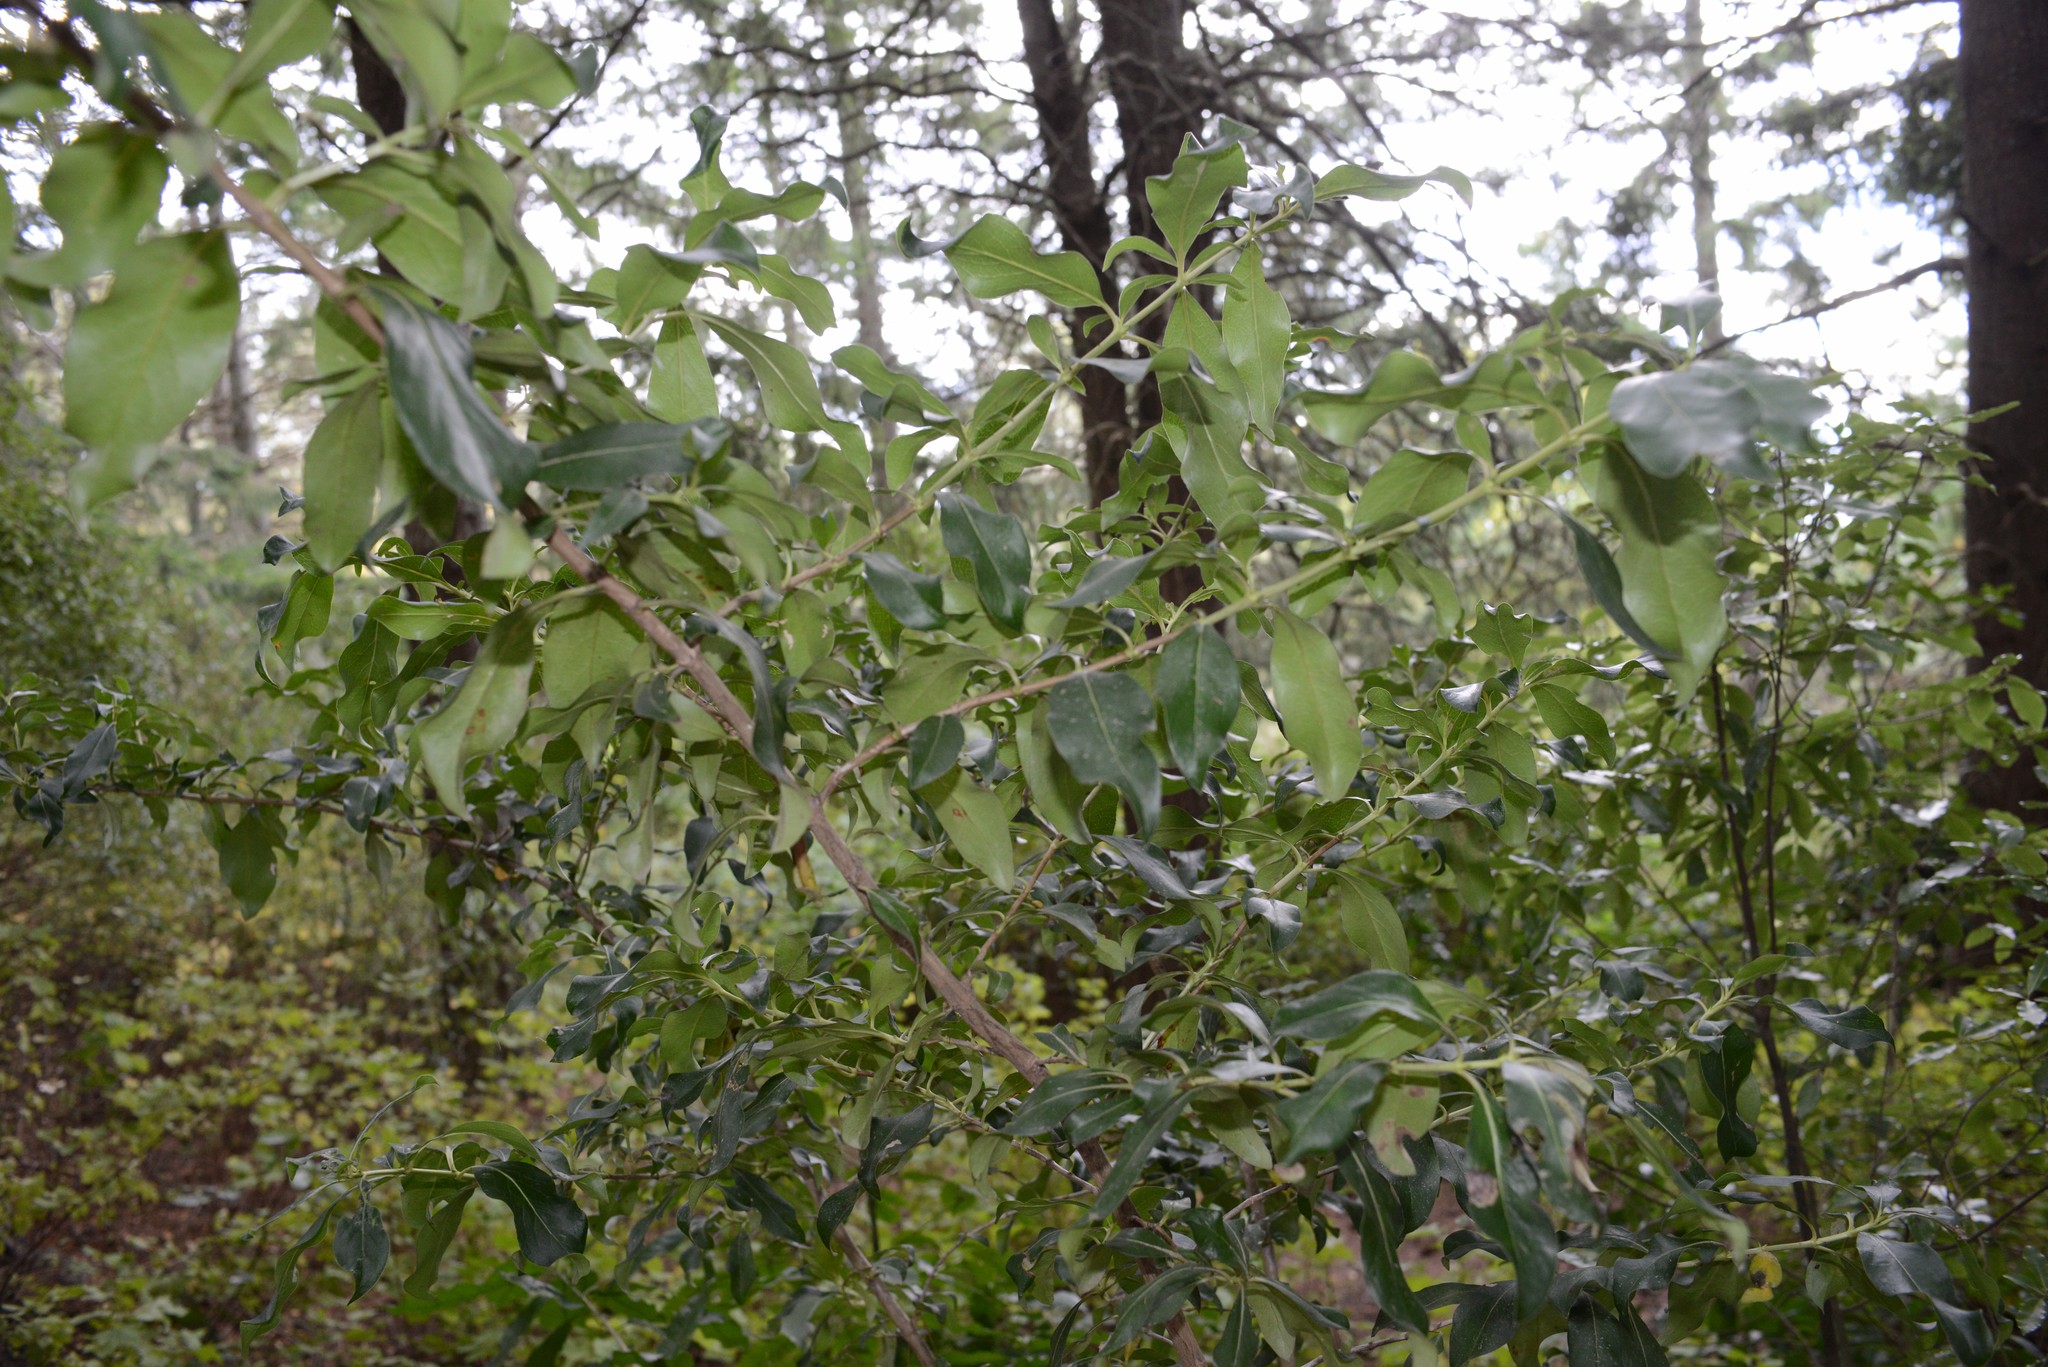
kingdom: Plantae
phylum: Tracheophyta
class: Magnoliopsida
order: Gentianales
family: Rubiaceae
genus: Coprosma
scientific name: Coprosma robusta
